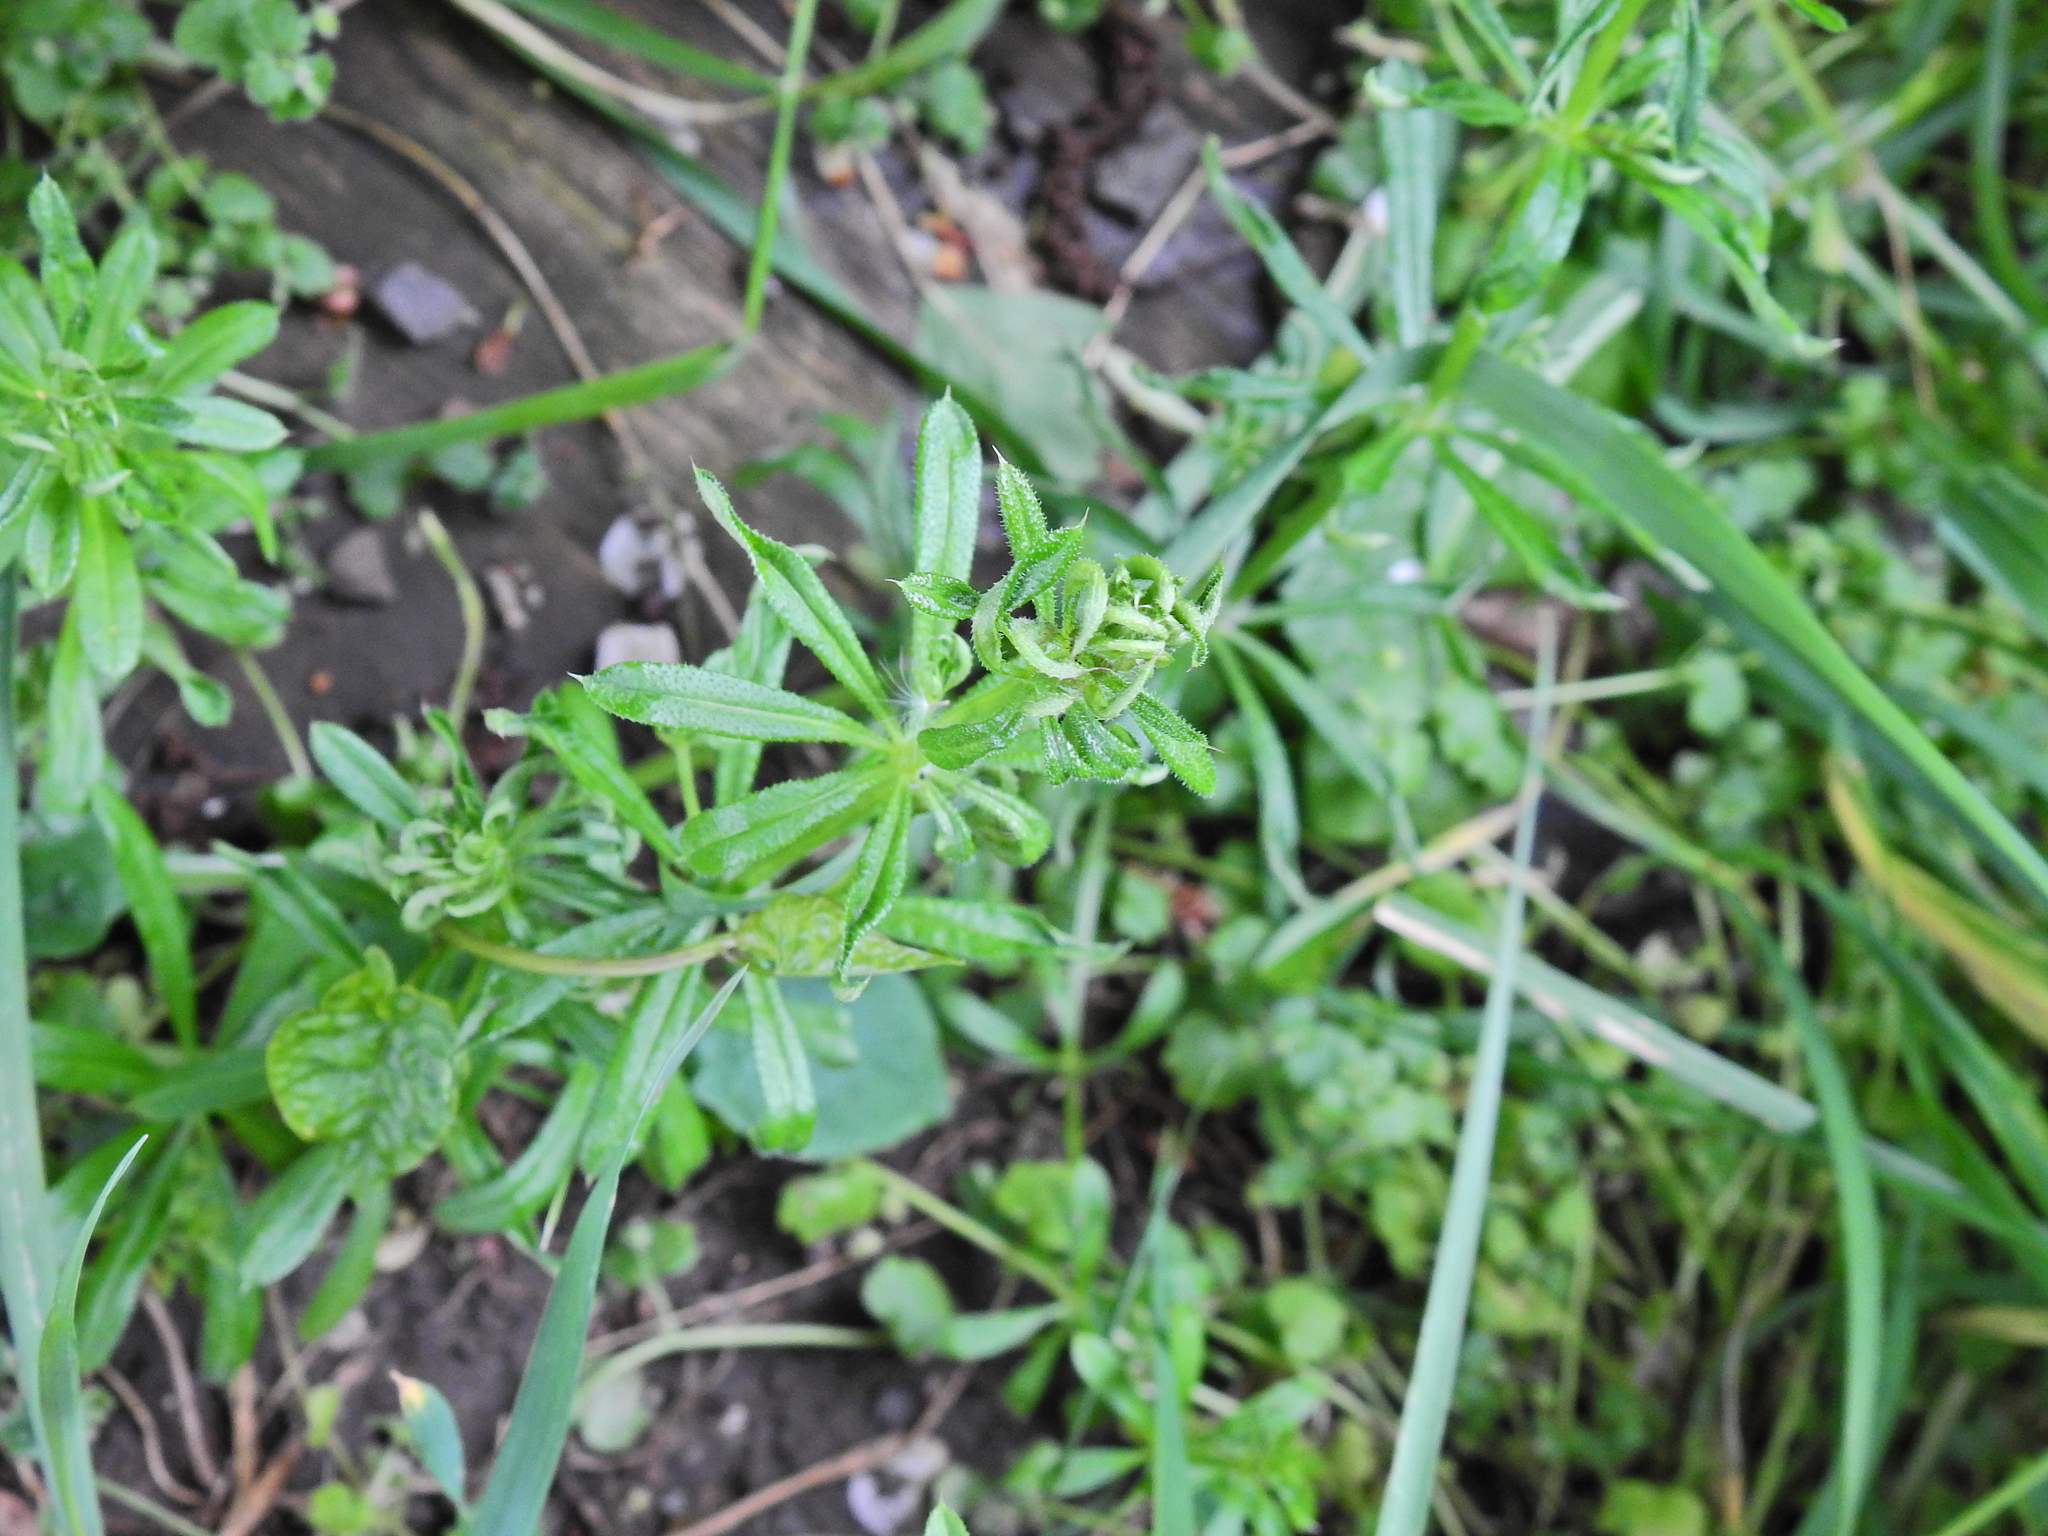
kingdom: Animalia
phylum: Arthropoda
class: Arachnida
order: Trombidiformes
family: Eriophyidae
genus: Cecidophyes
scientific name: Cecidophyes rouhollahi
